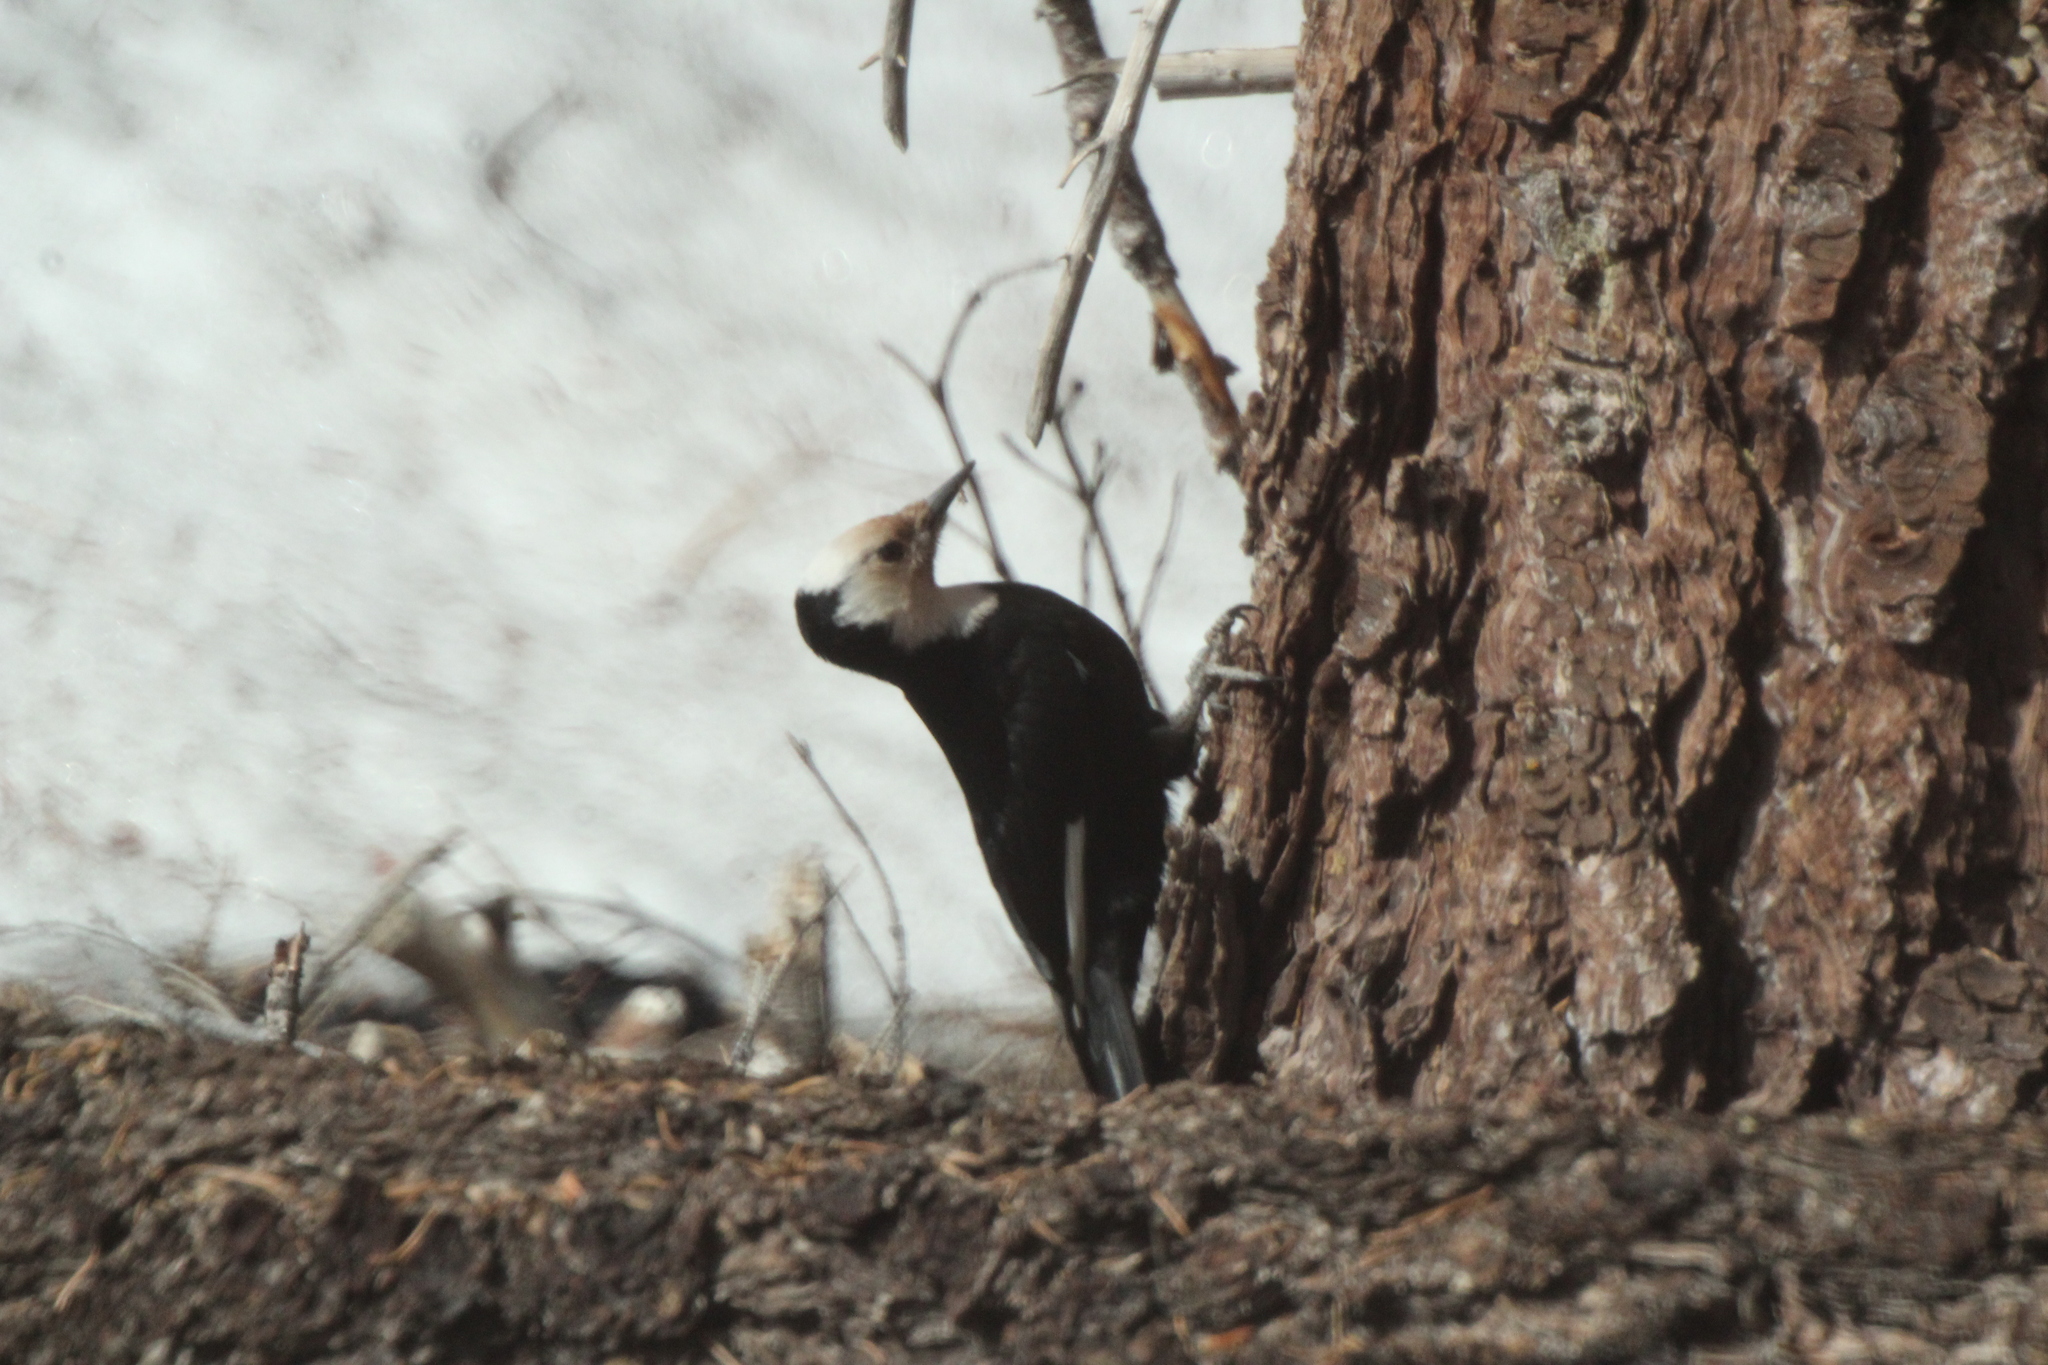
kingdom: Animalia
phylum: Chordata
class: Aves
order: Piciformes
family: Picidae
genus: Leuconotopicus
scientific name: Leuconotopicus albolarvatus
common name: White-headed woodpecker
